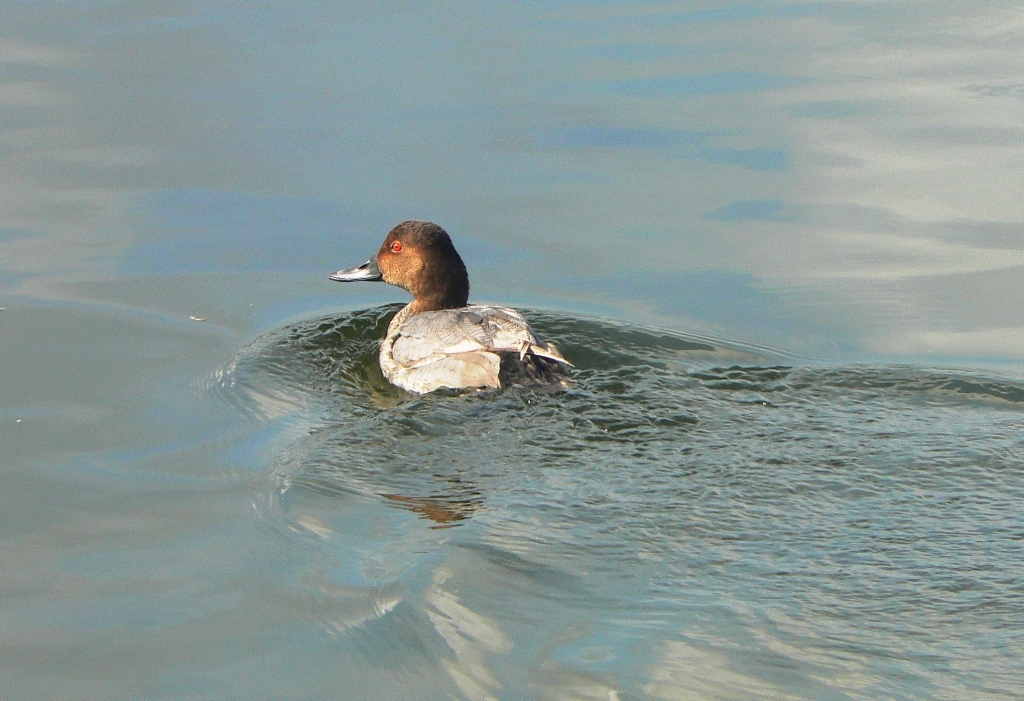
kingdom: Animalia
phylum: Chordata
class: Aves
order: Anseriformes
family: Anatidae
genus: Aythya
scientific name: Aythya ferina
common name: Common pochard
